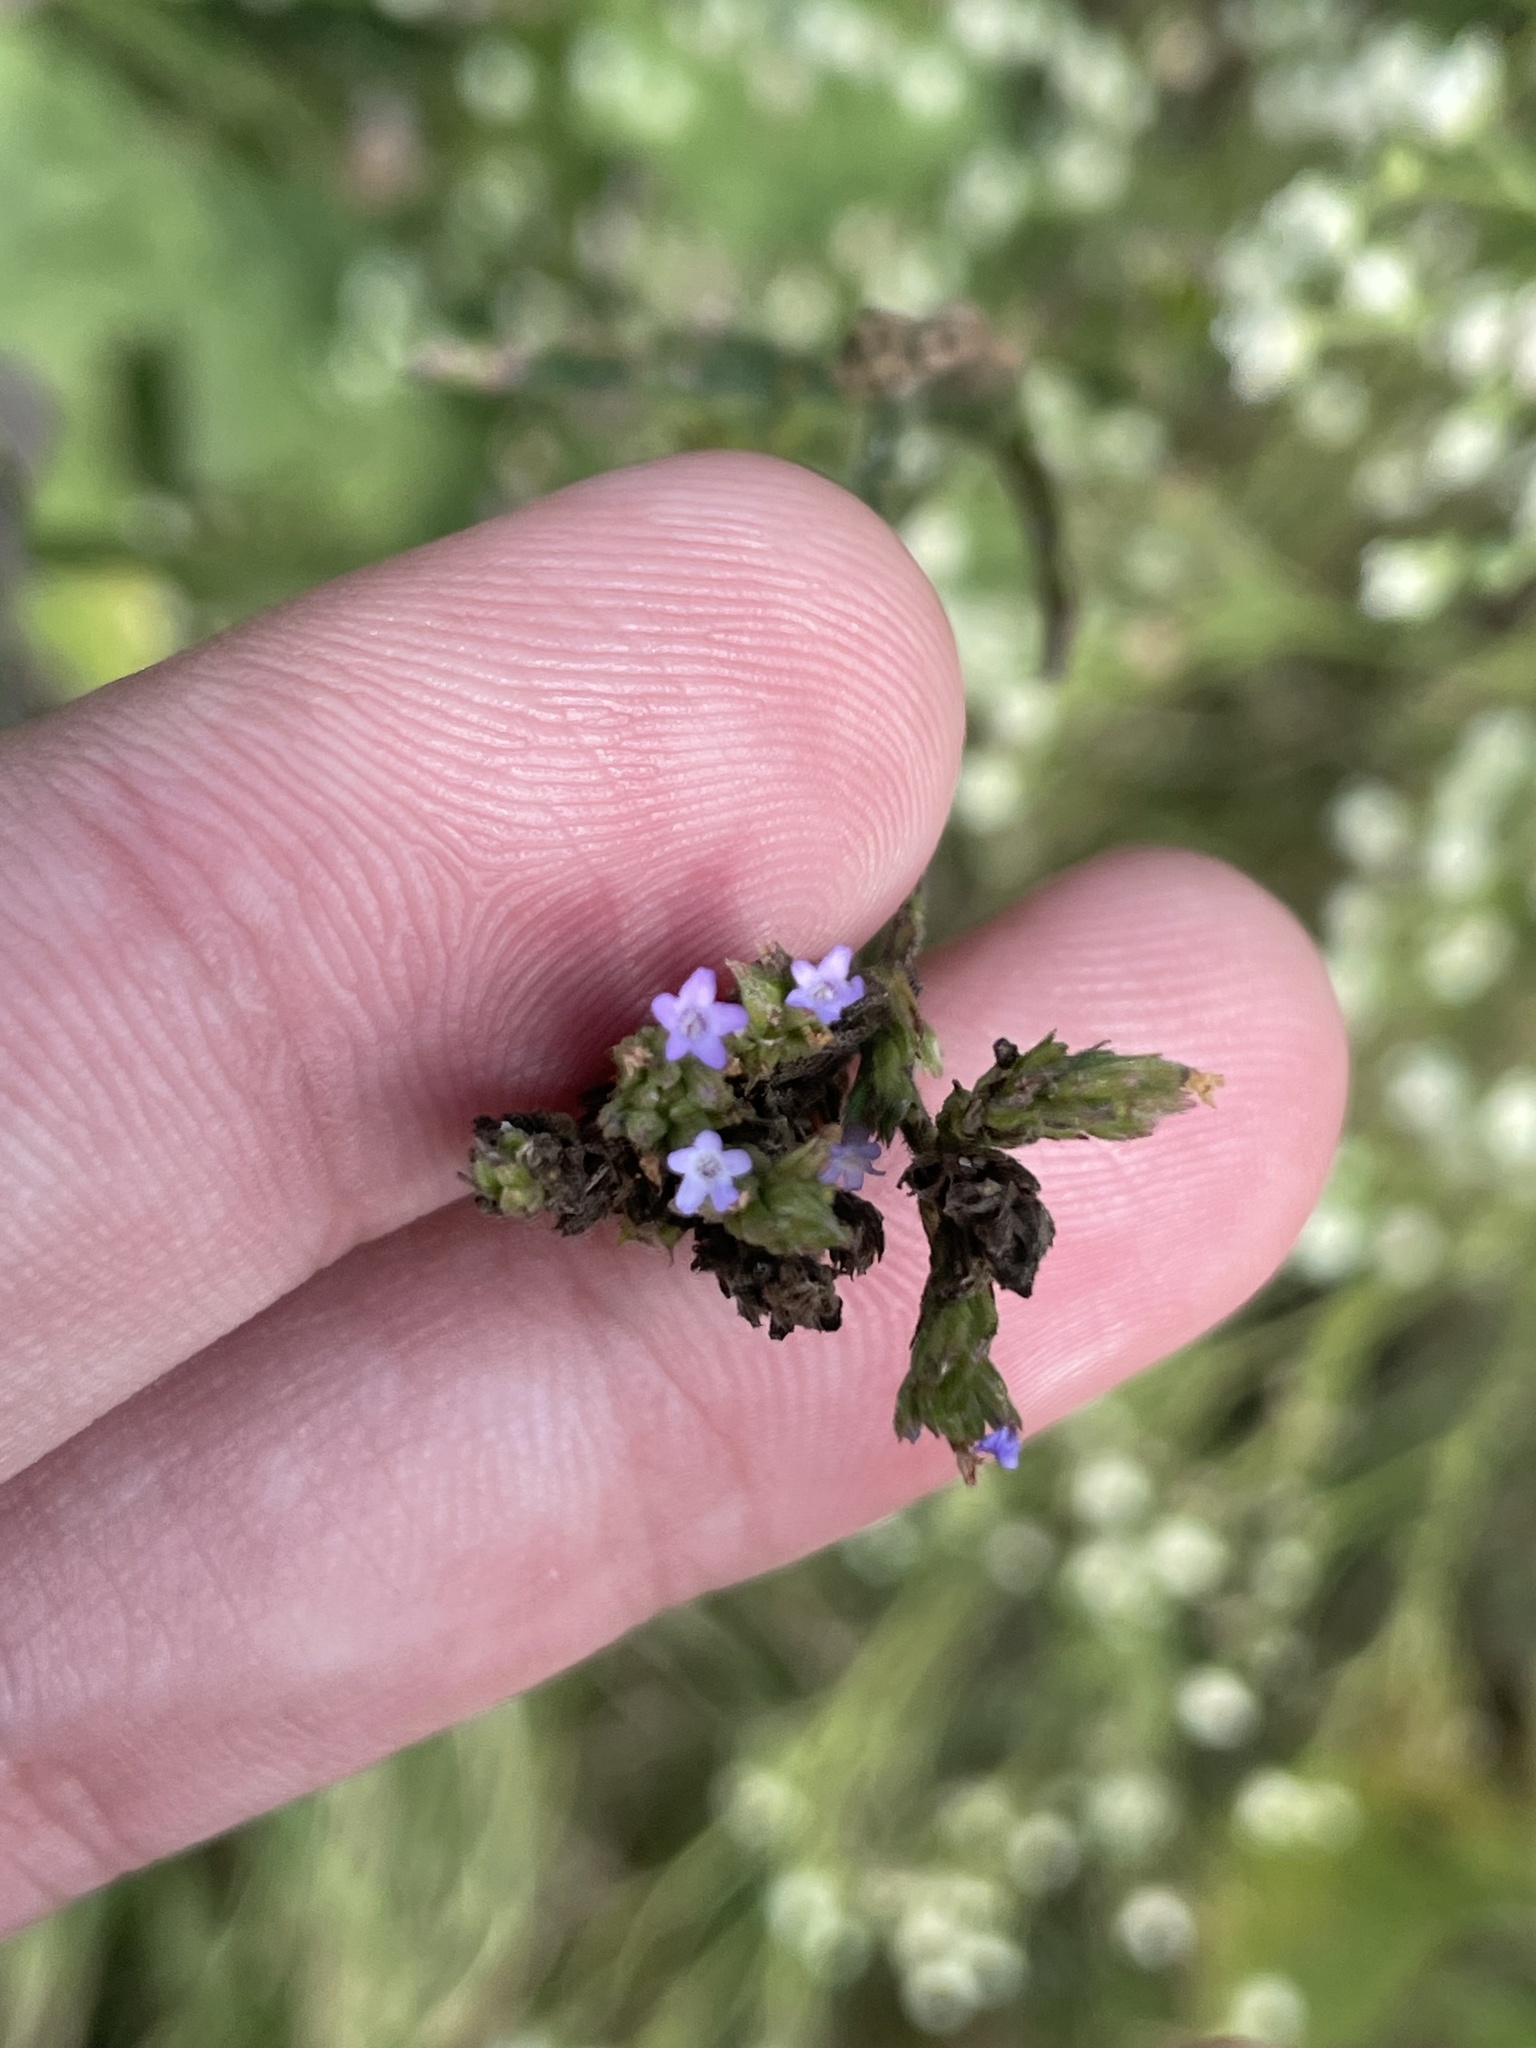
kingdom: Plantae
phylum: Tracheophyta
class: Magnoliopsida
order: Lamiales
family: Verbenaceae
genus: Verbena
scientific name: Verbena brasiliensis
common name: Brazilian vervain
